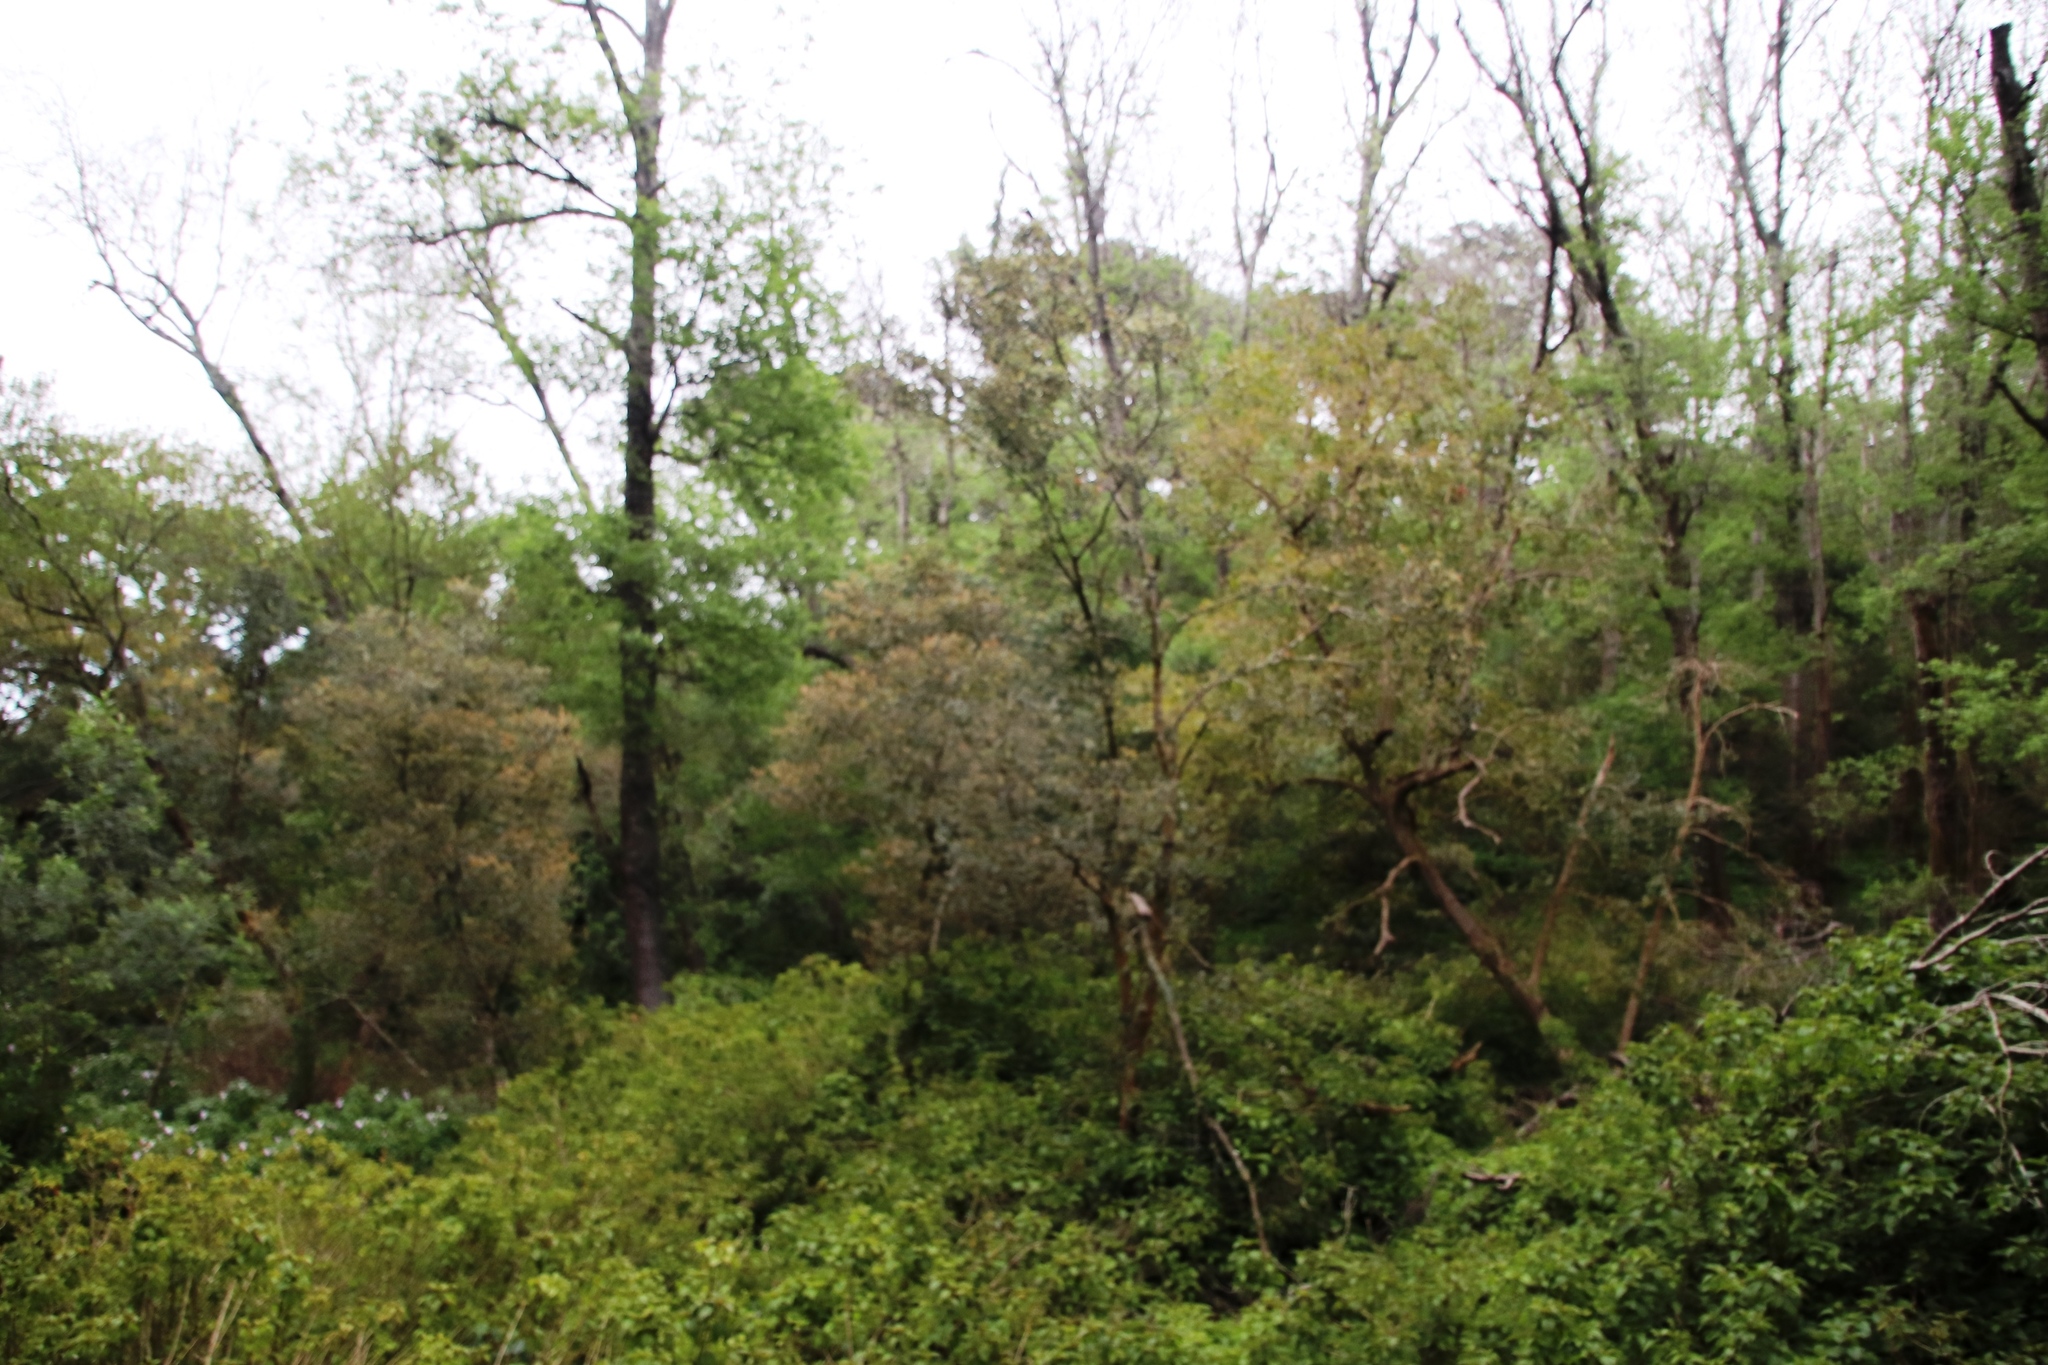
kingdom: Plantae
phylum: Tracheophyta
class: Magnoliopsida
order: Ericales
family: Ebenaceae
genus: Diospyros
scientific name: Diospyros whyteana
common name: Bladder-nut
